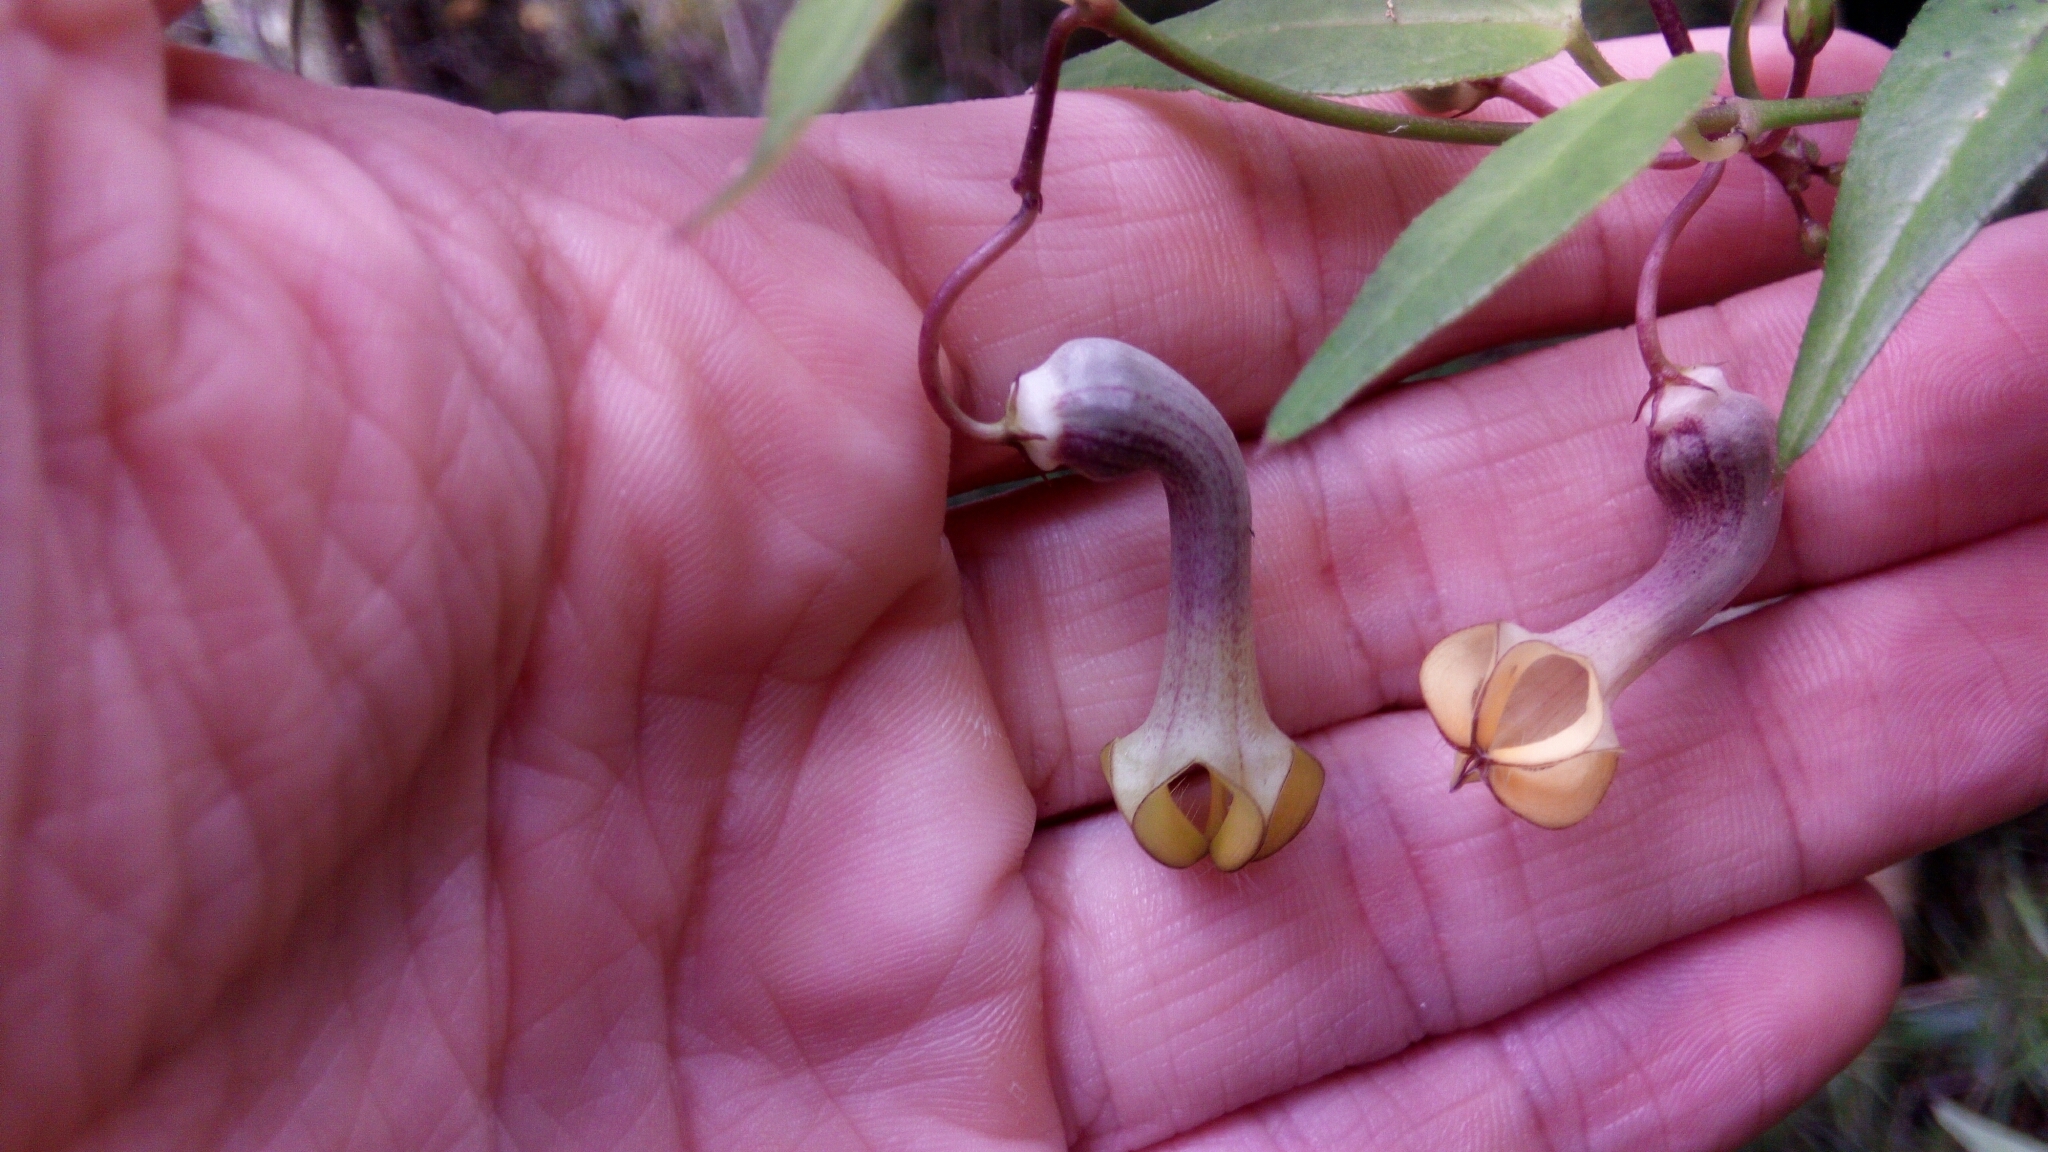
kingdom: Plantae
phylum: Tracheophyta
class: Magnoliopsida
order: Gentianales
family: Apocynaceae
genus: Ceropegia
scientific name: Ceropegia racemosa
